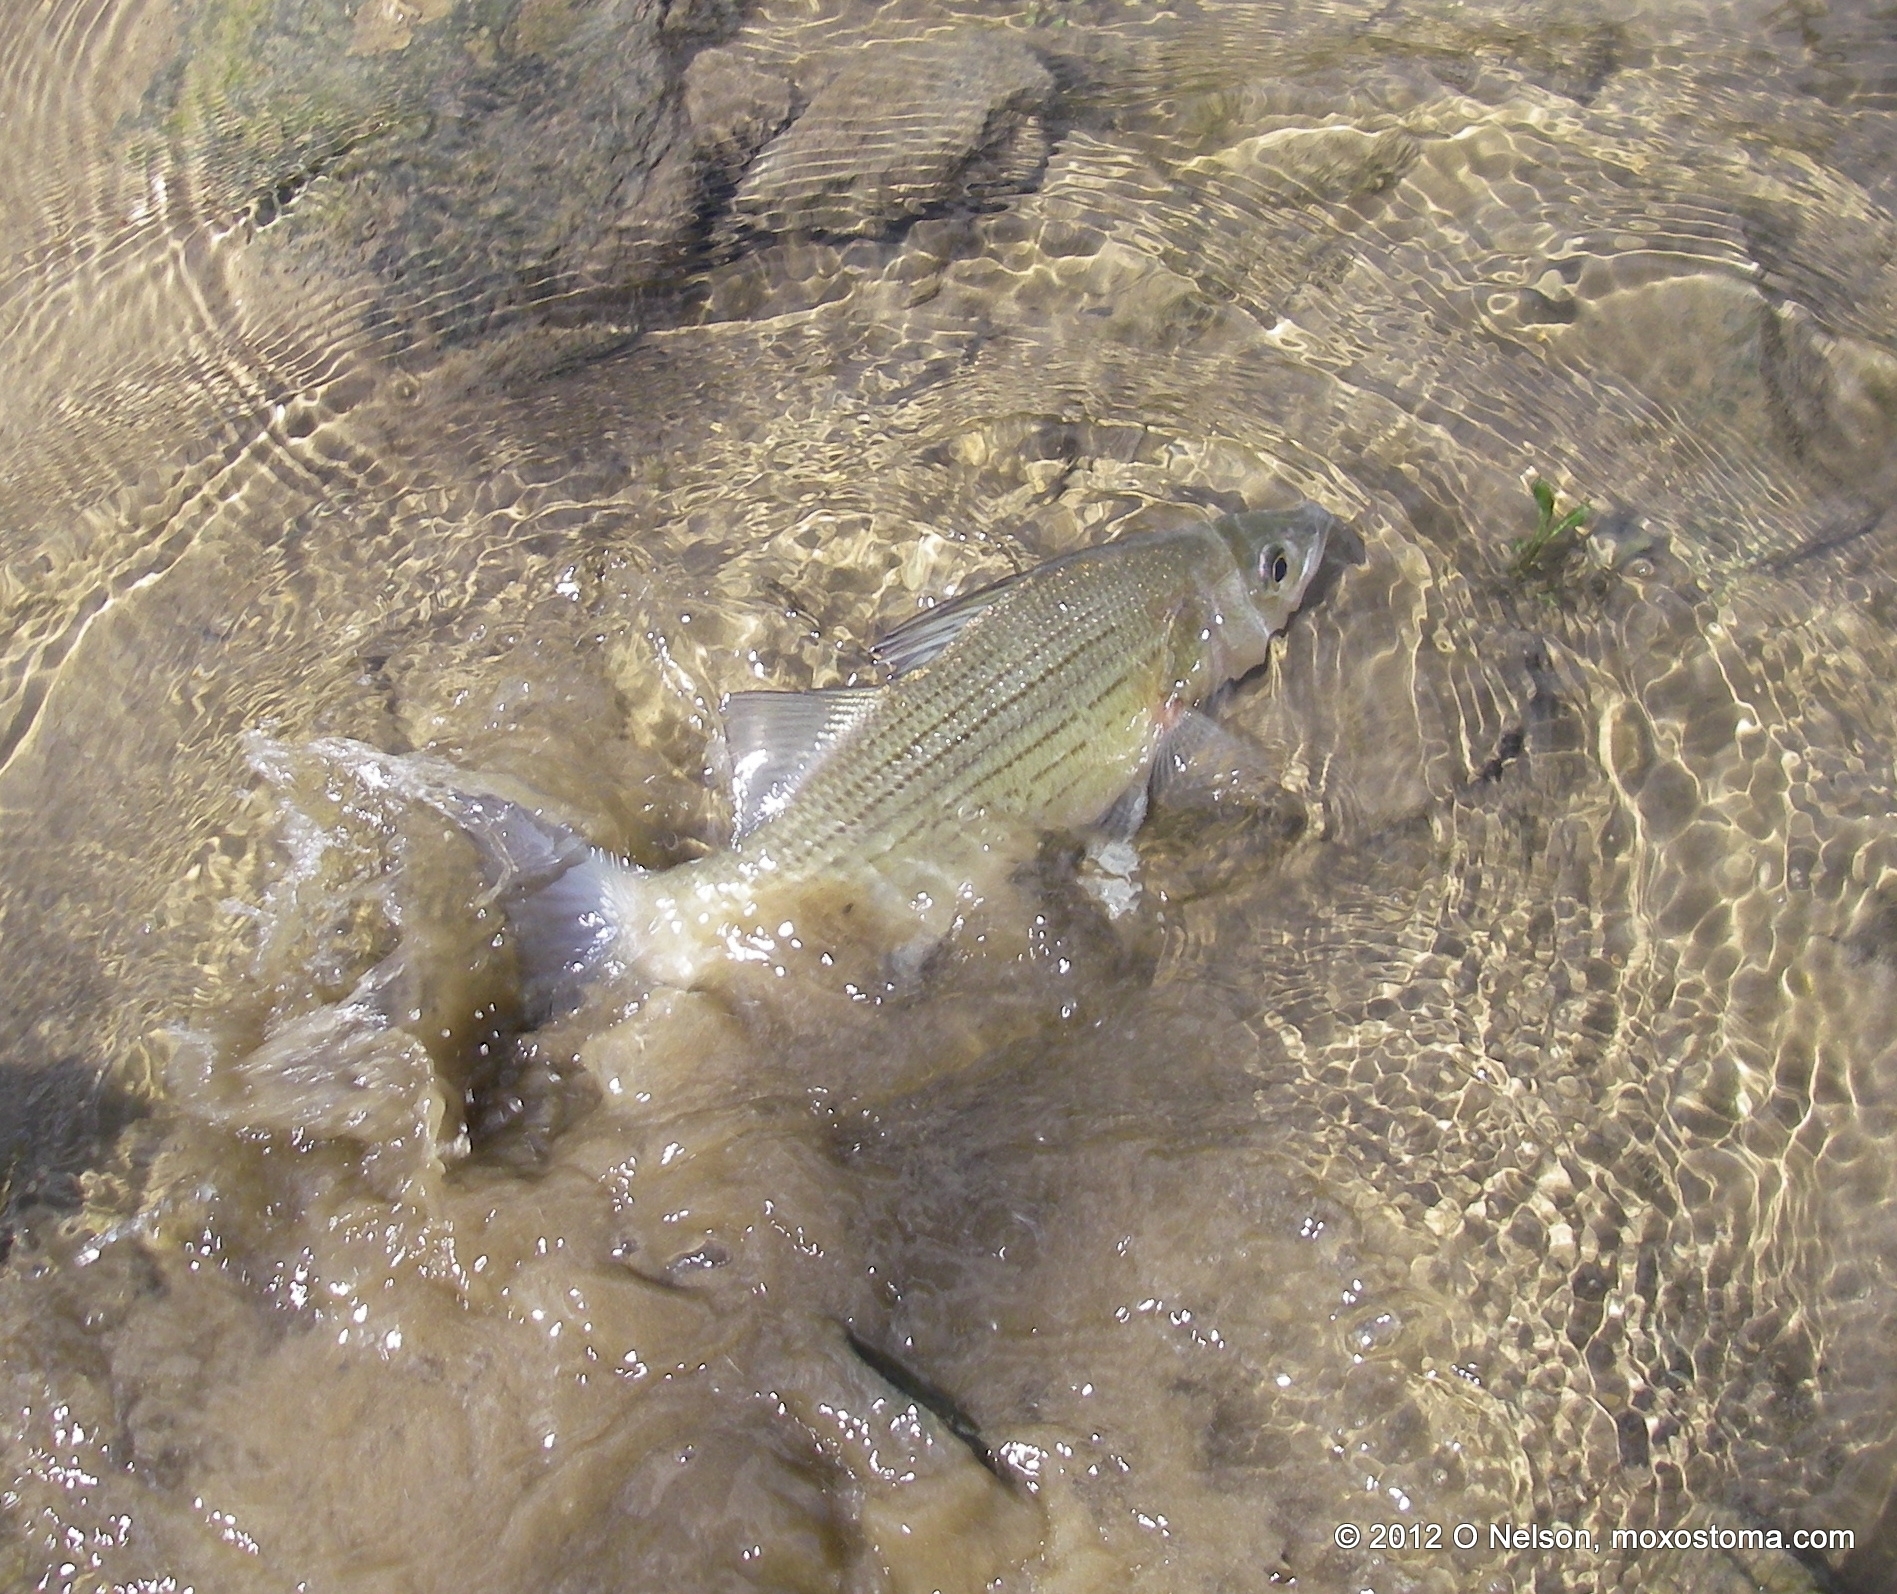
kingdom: Animalia
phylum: Chordata
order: Perciformes
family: Moronidae
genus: Morone
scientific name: Morone chrysops
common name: White bass
